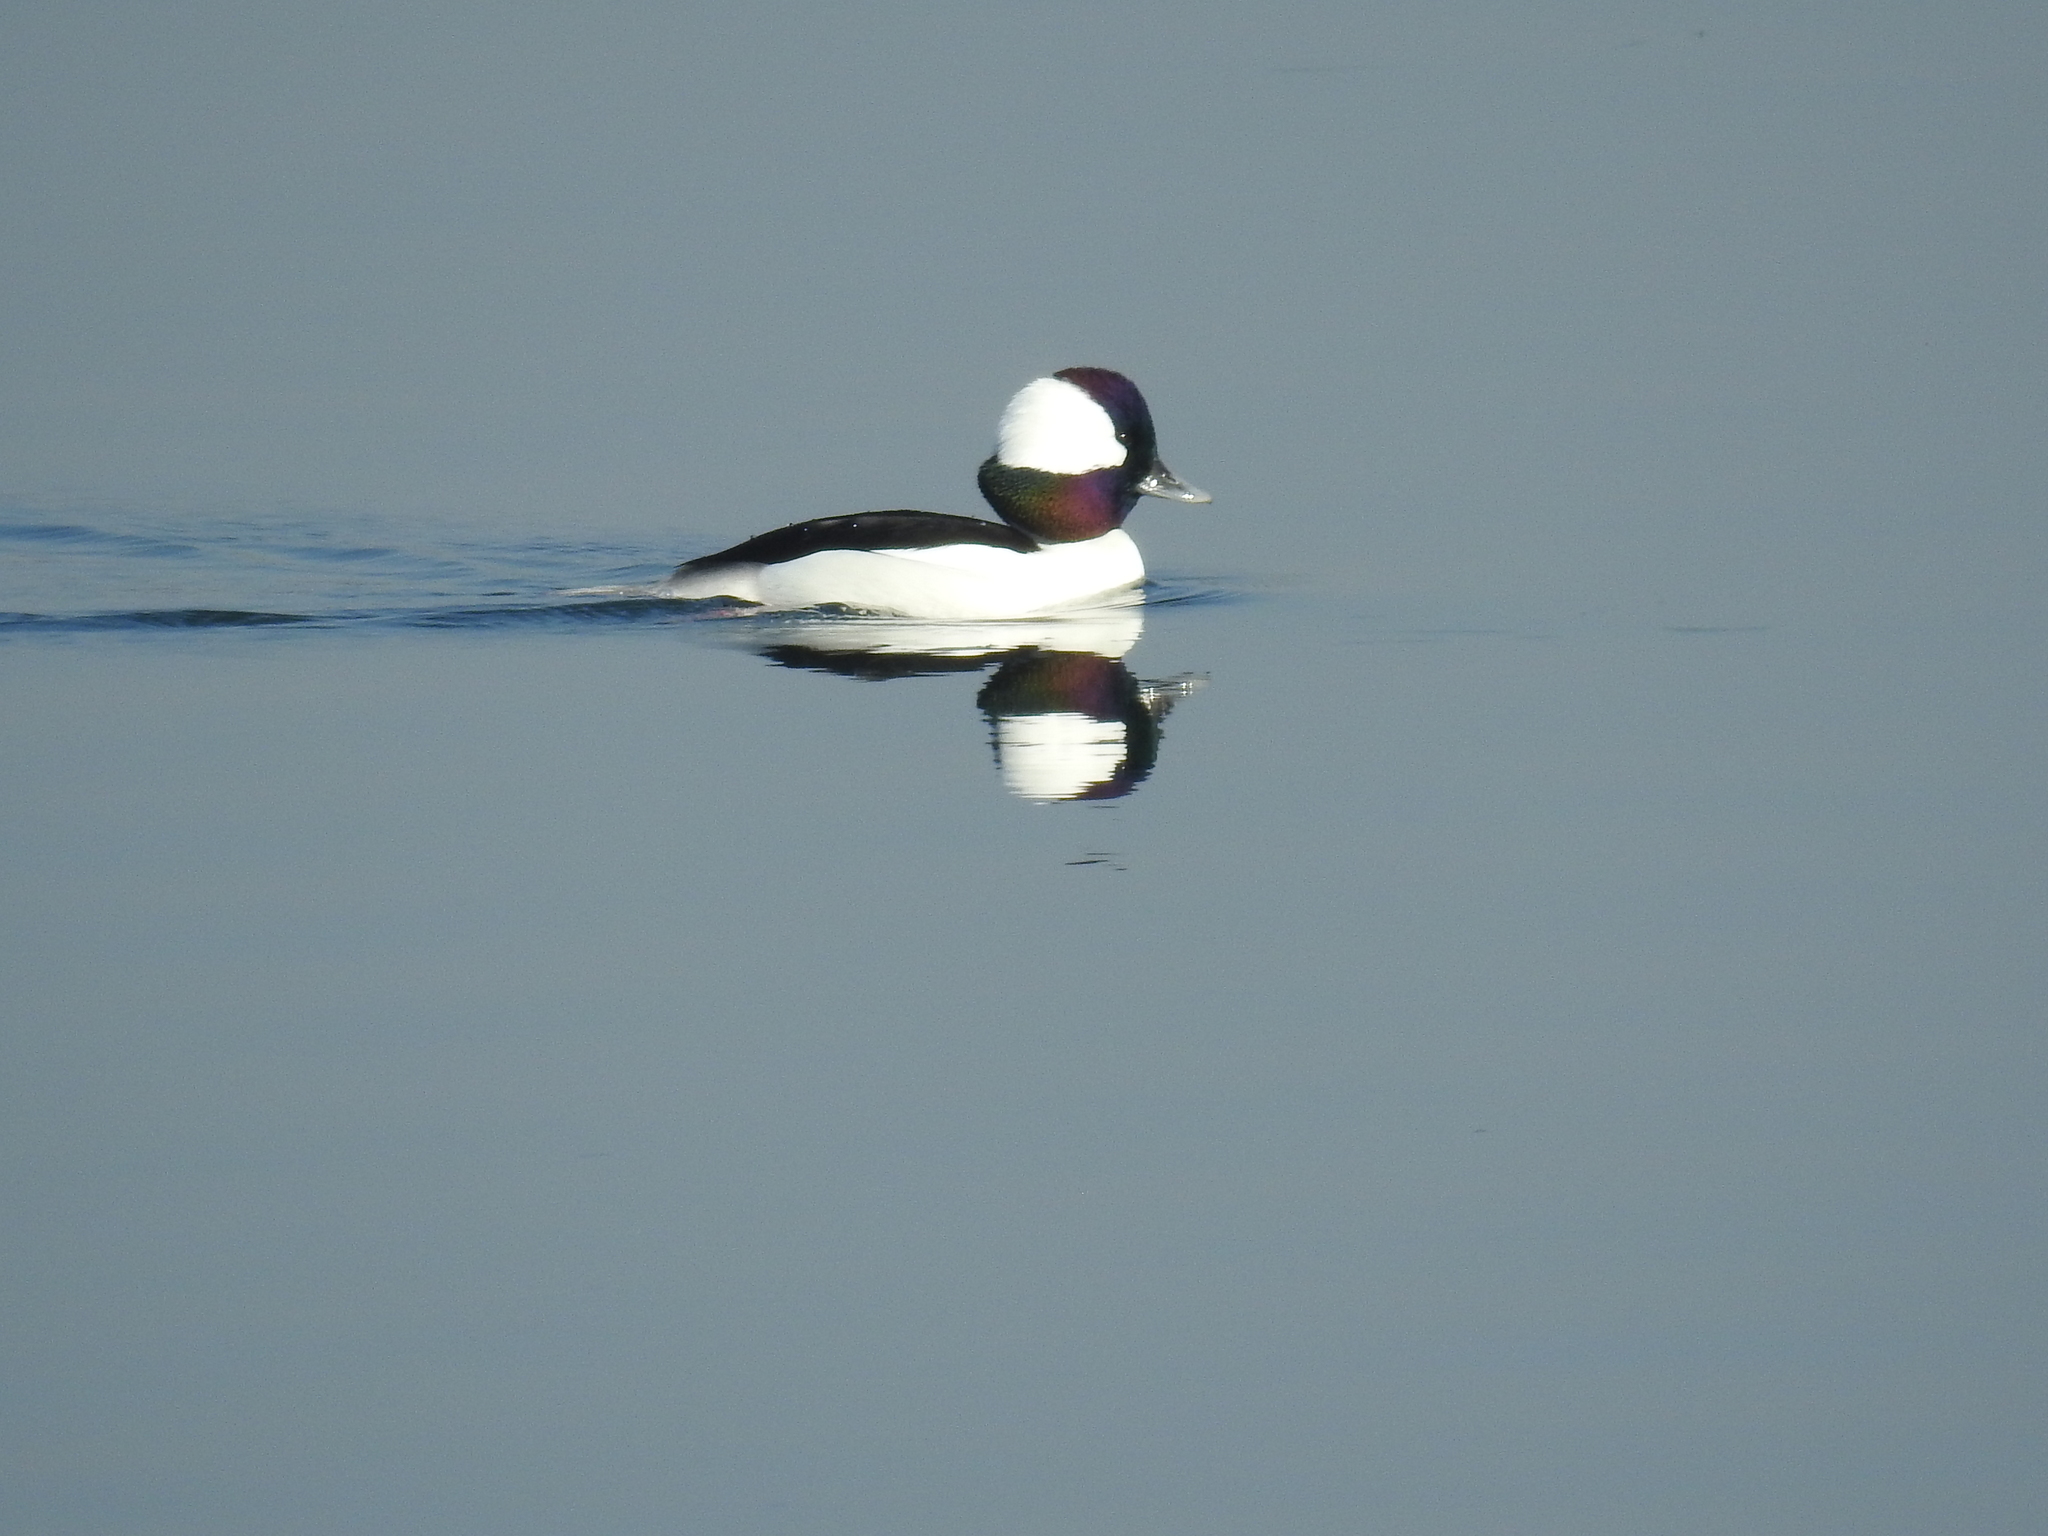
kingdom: Animalia
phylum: Chordata
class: Aves
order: Anseriformes
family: Anatidae
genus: Bucephala
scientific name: Bucephala albeola
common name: Bufflehead
